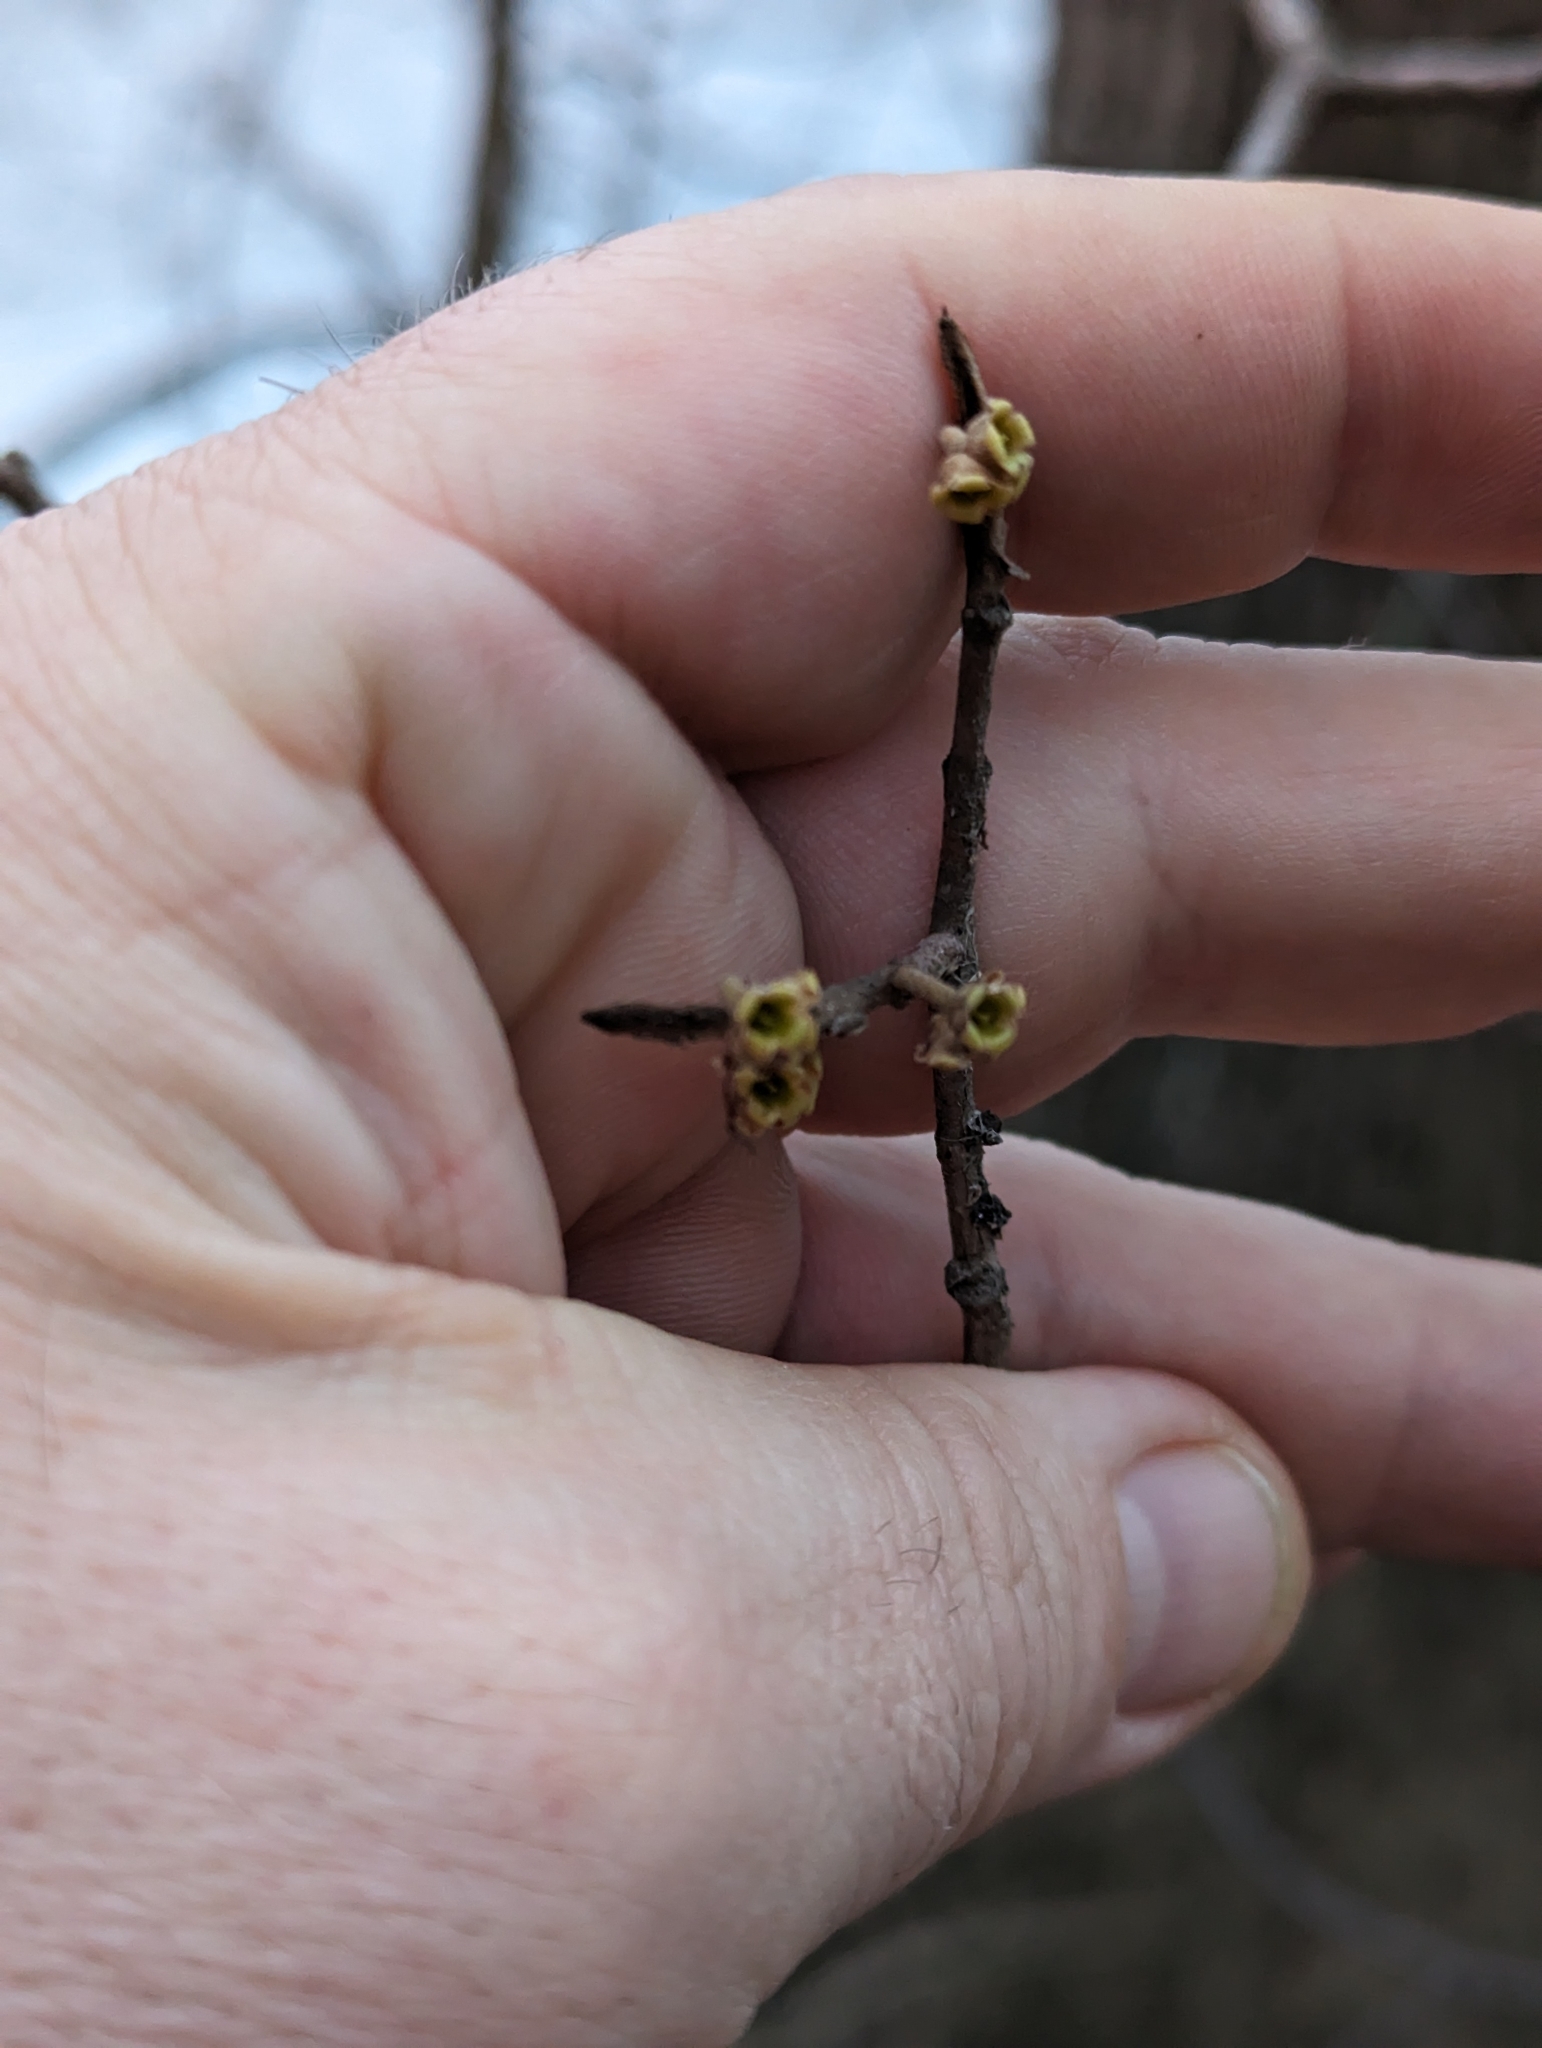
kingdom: Plantae
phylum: Tracheophyta
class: Magnoliopsida
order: Saxifragales
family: Hamamelidaceae
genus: Hamamelis
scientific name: Hamamelis virginiana
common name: Witch-hazel
